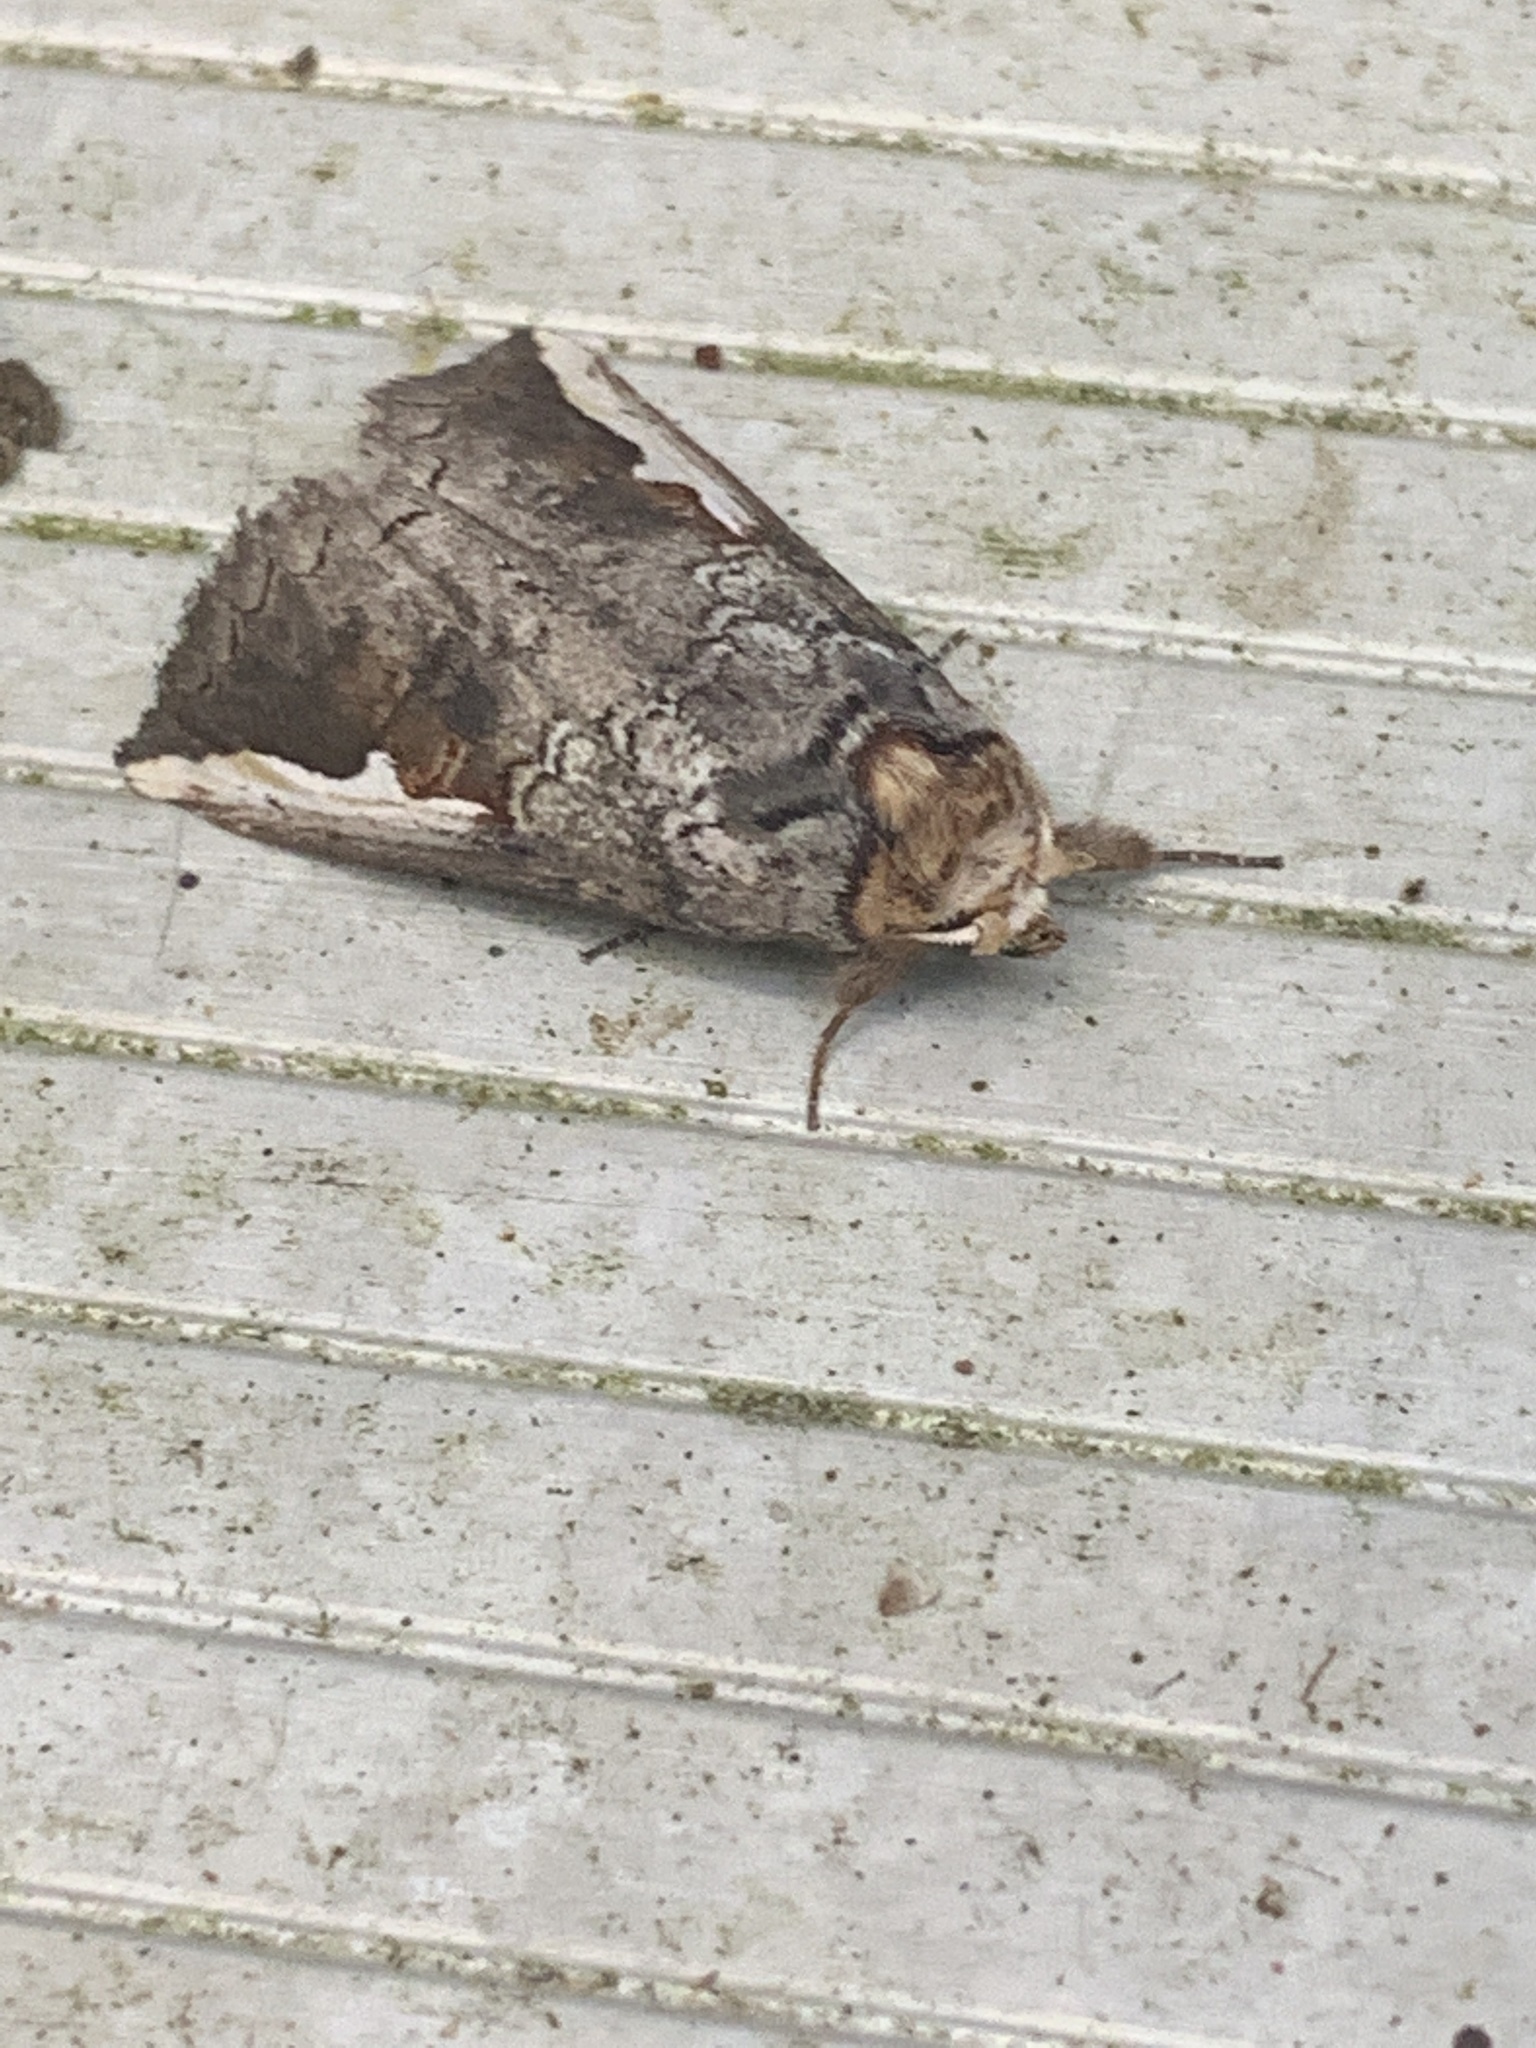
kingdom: Animalia
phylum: Arthropoda
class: Insecta
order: Lepidoptera
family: Notodontidae
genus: Symmerista
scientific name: Symmerista albifrons
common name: White-headed prominent
